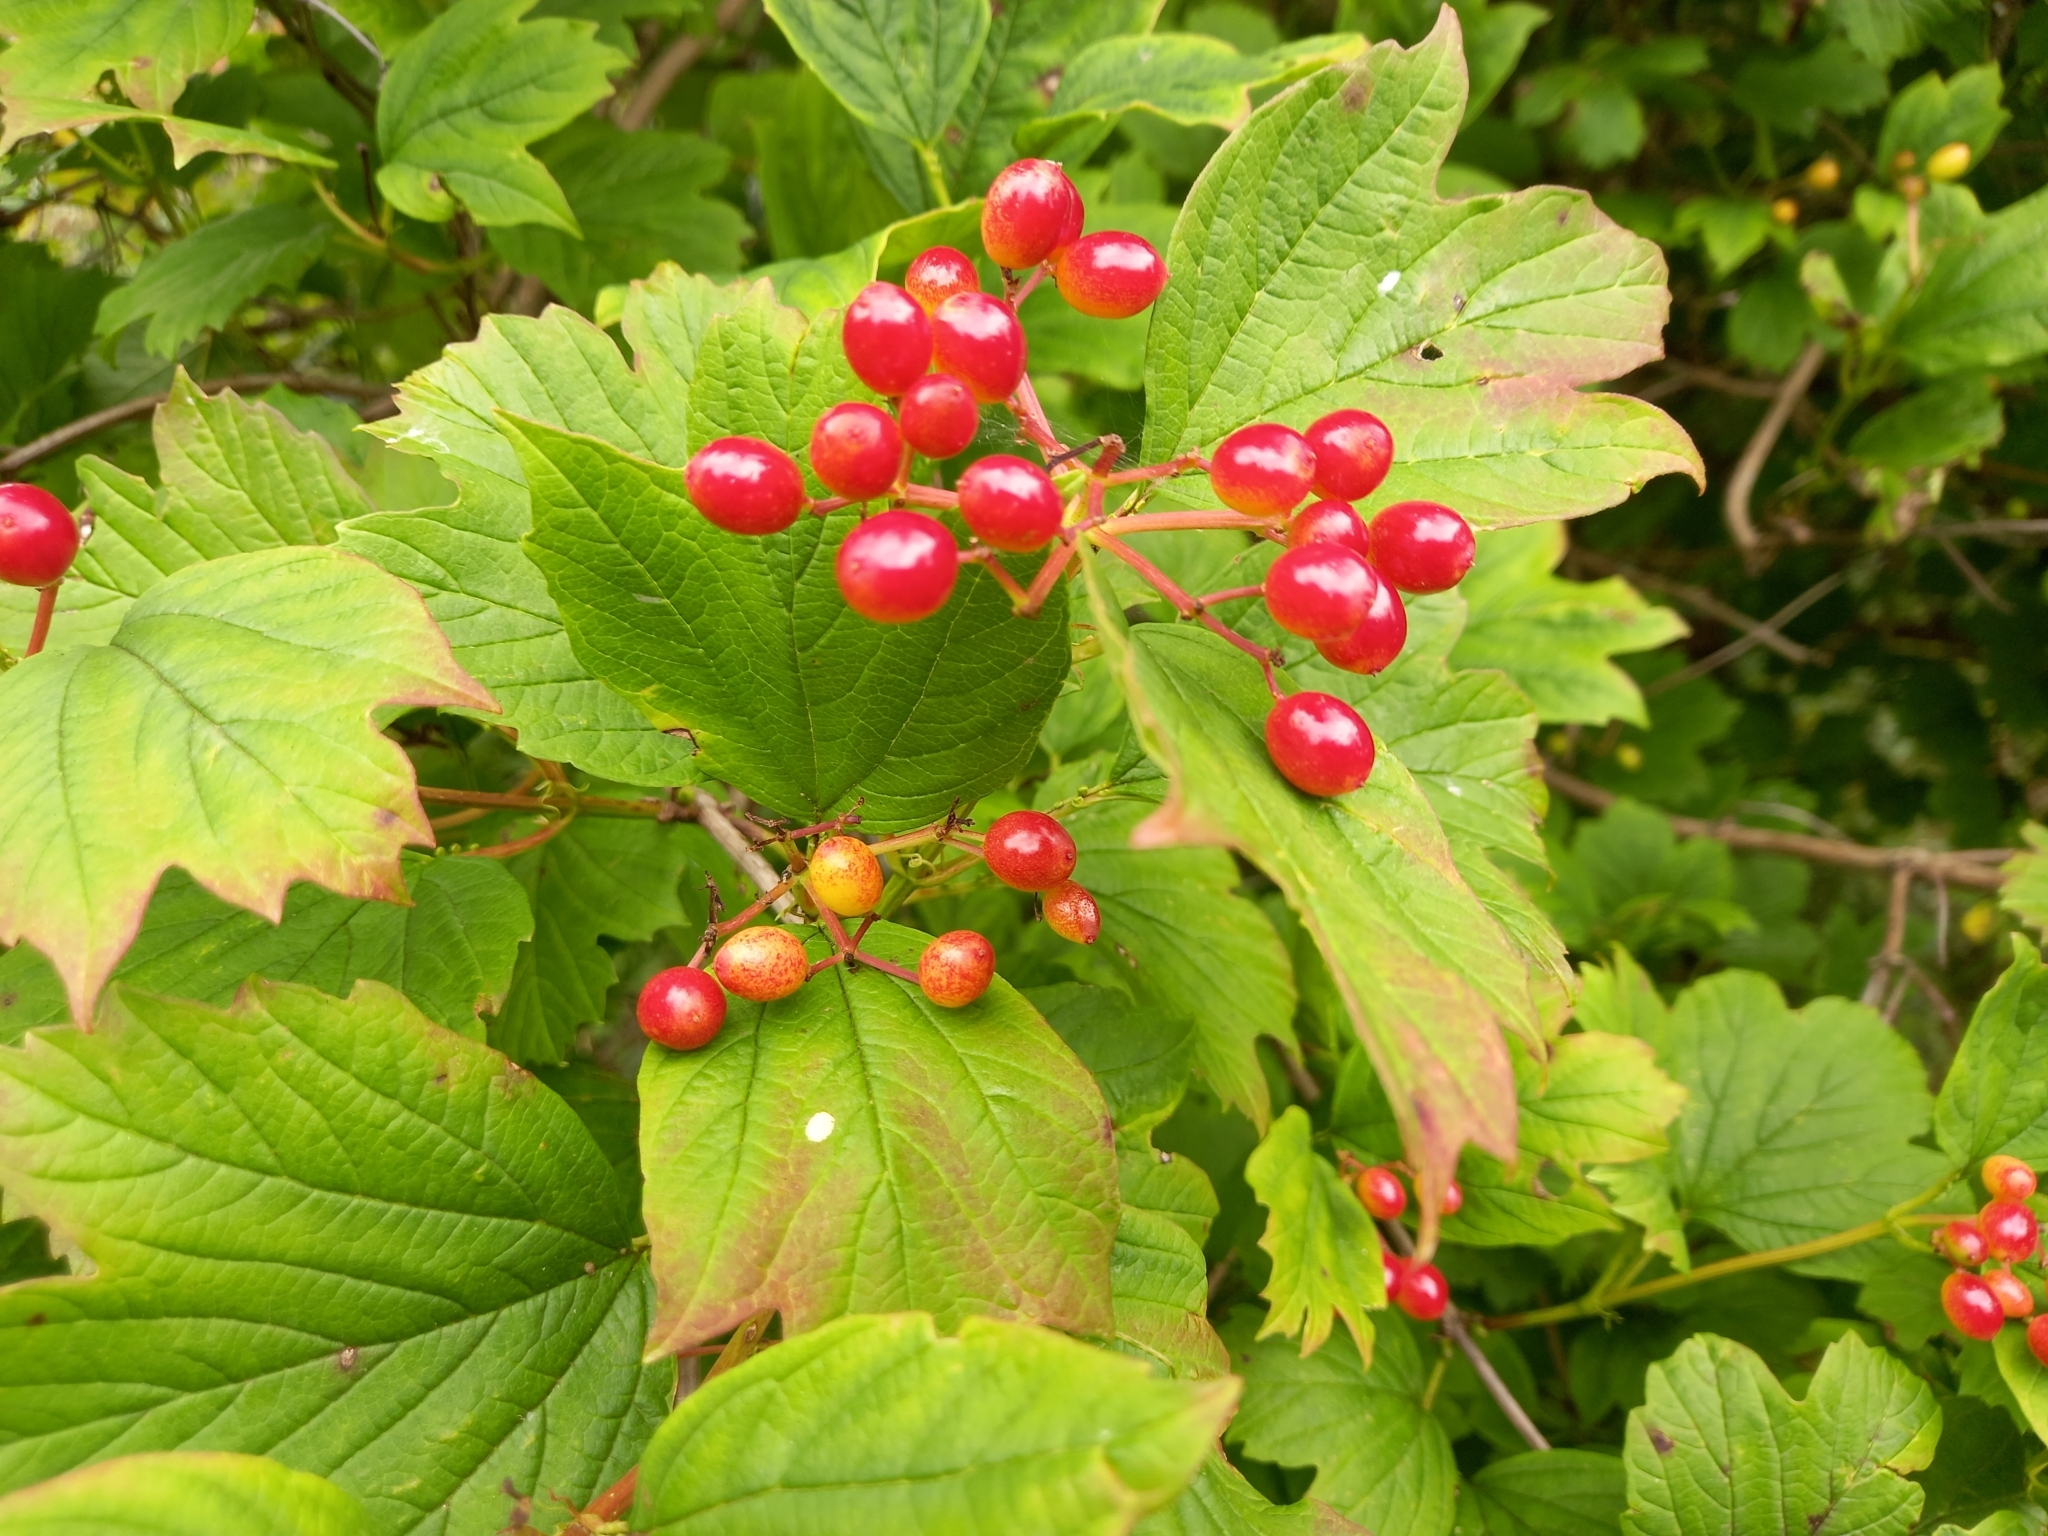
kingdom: Plantae
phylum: Tracheophyta
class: Magnoliopsida
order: Dipsacales
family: Viburnaceae
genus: Viburnum
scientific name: Viburnum opulus
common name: Guelder-rose
